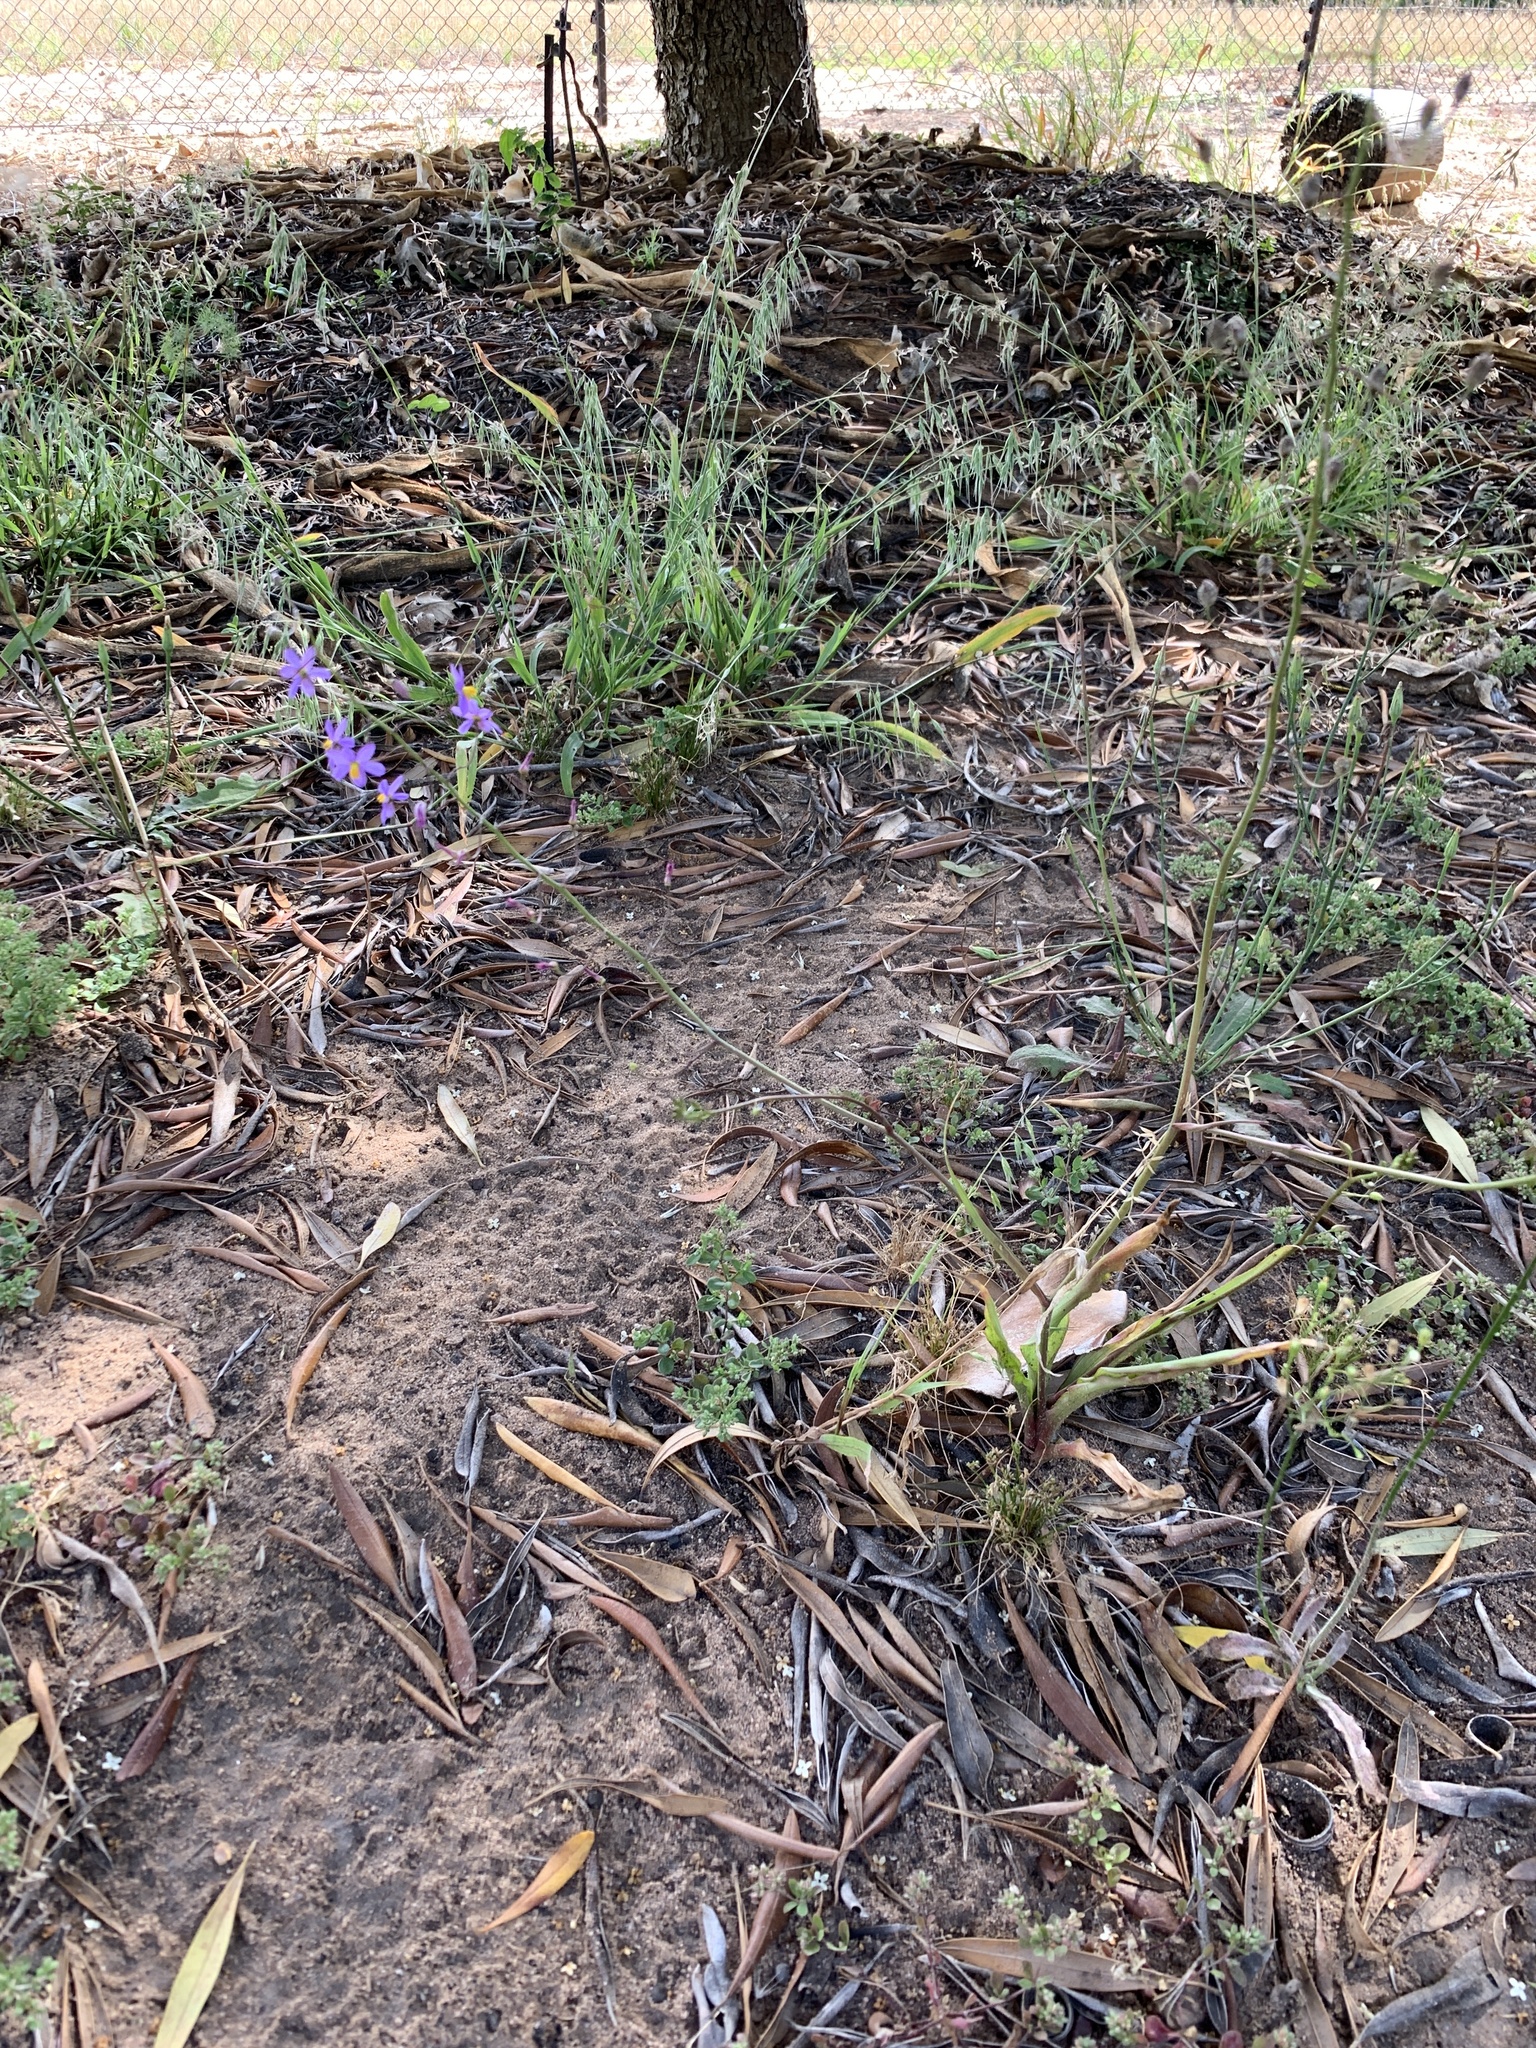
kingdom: Plantae
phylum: Tracheophyta
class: Liliopsida
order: Asparagales
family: Tecophilaeaceae
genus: Cyanella
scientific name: Cyanella hyacinthoides
